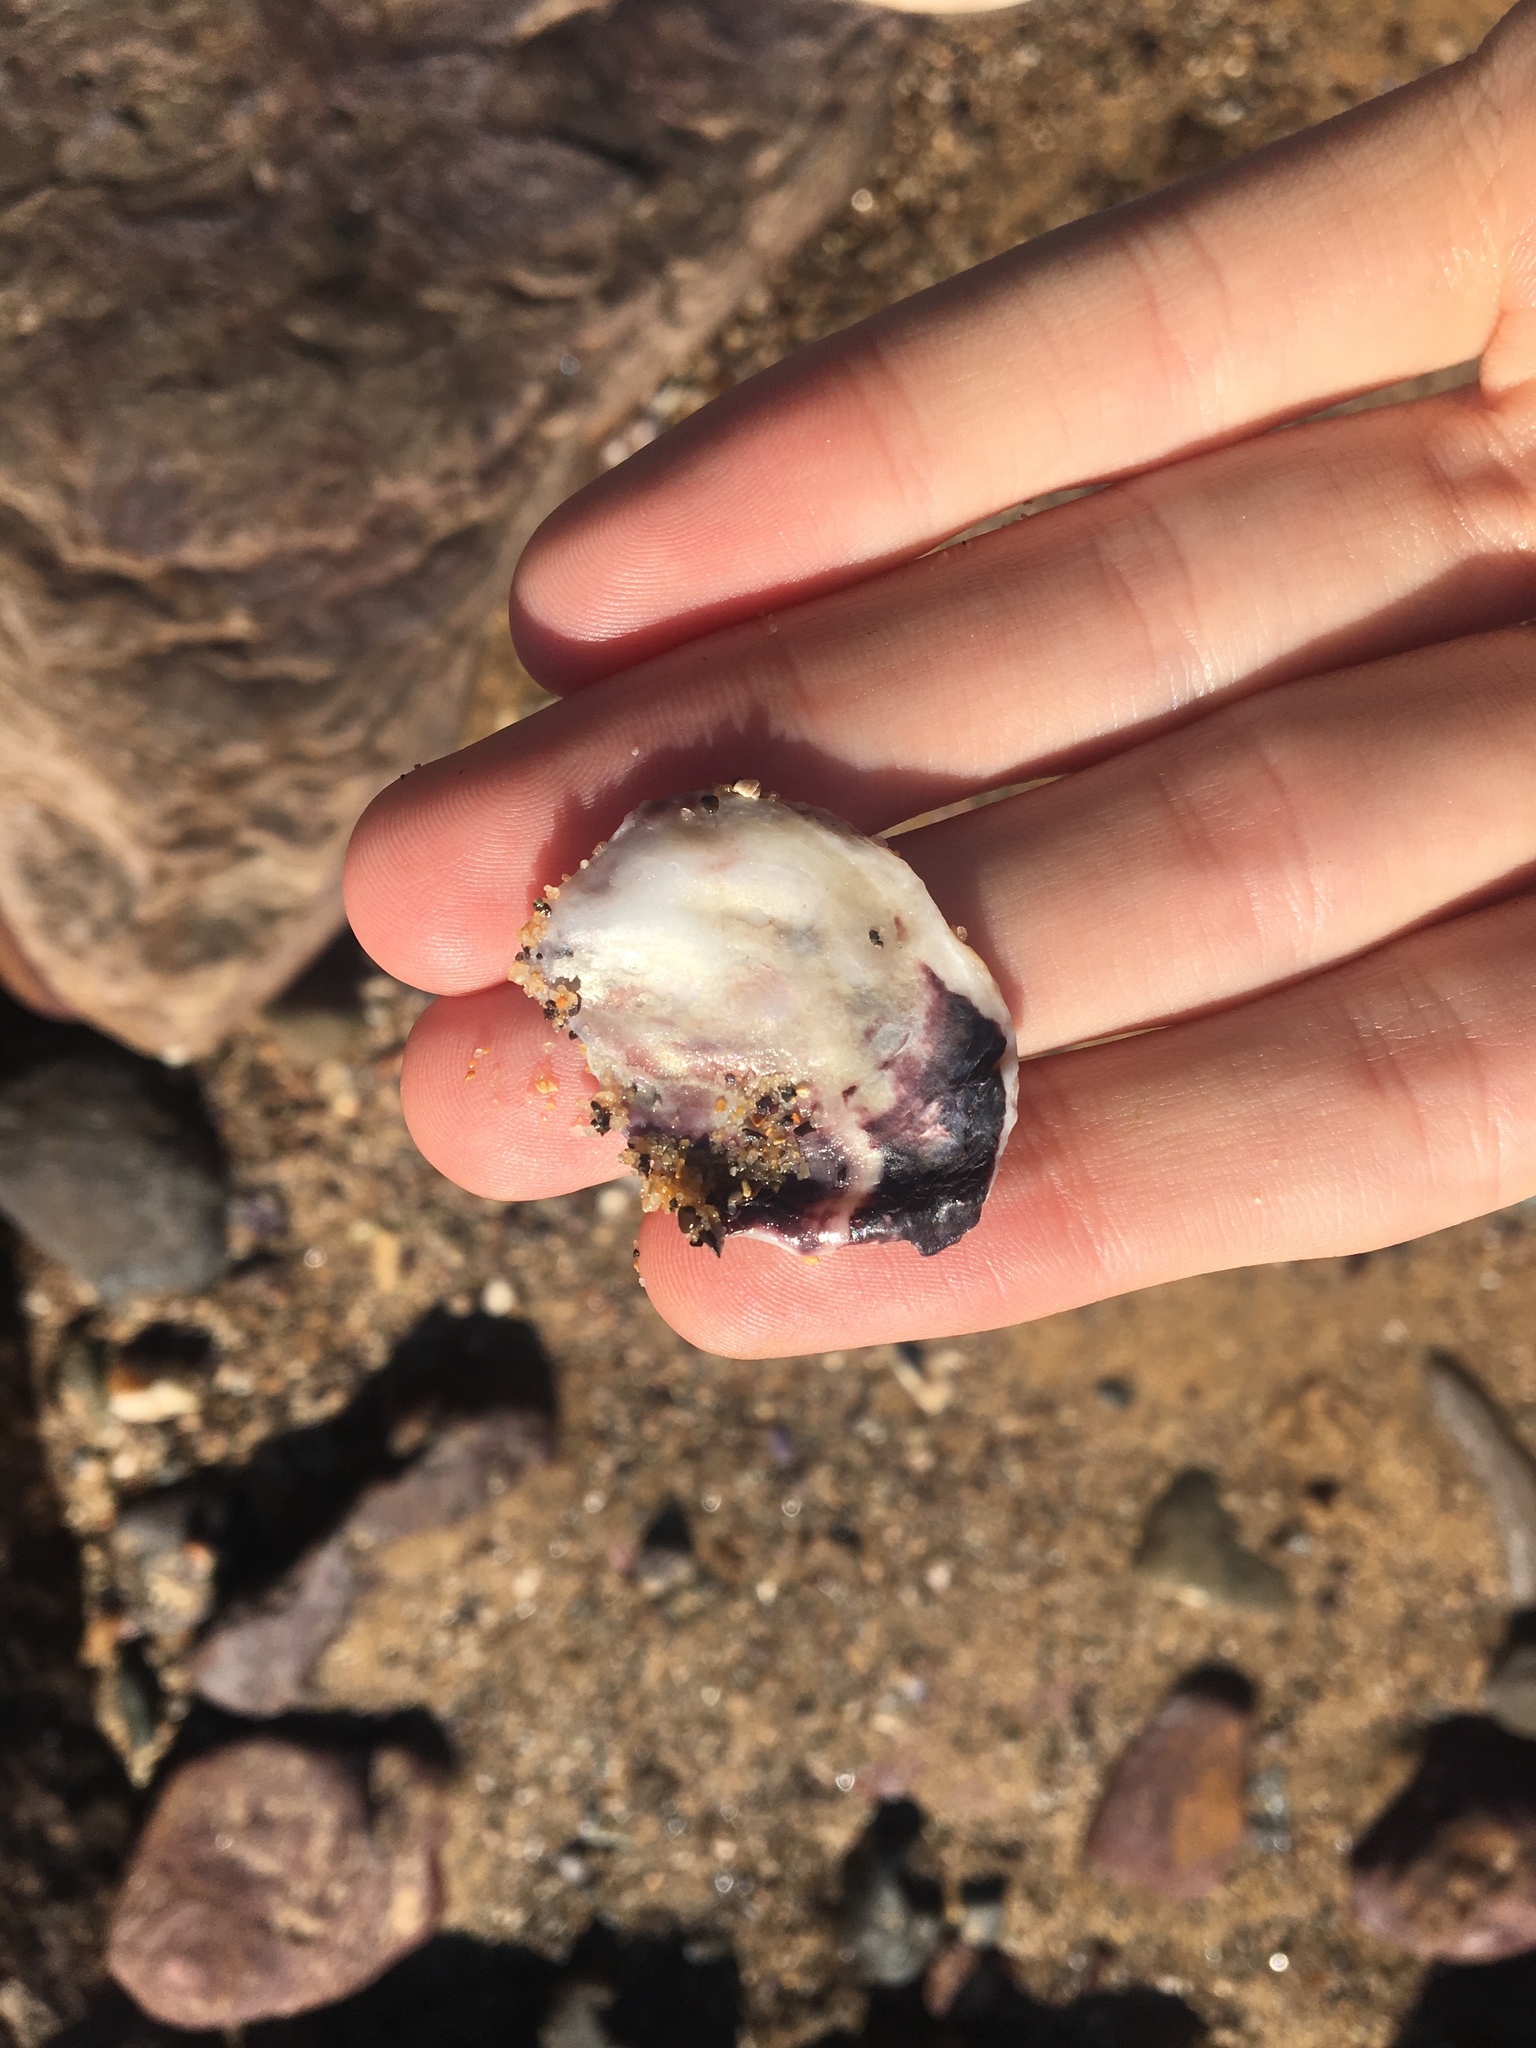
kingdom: Animalia
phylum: Mollusca
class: Bivalvia
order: Ostreida
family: Ostreidae
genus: Saccostrea
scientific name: Saccostrea glomerata
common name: Sydney cupped oyster
